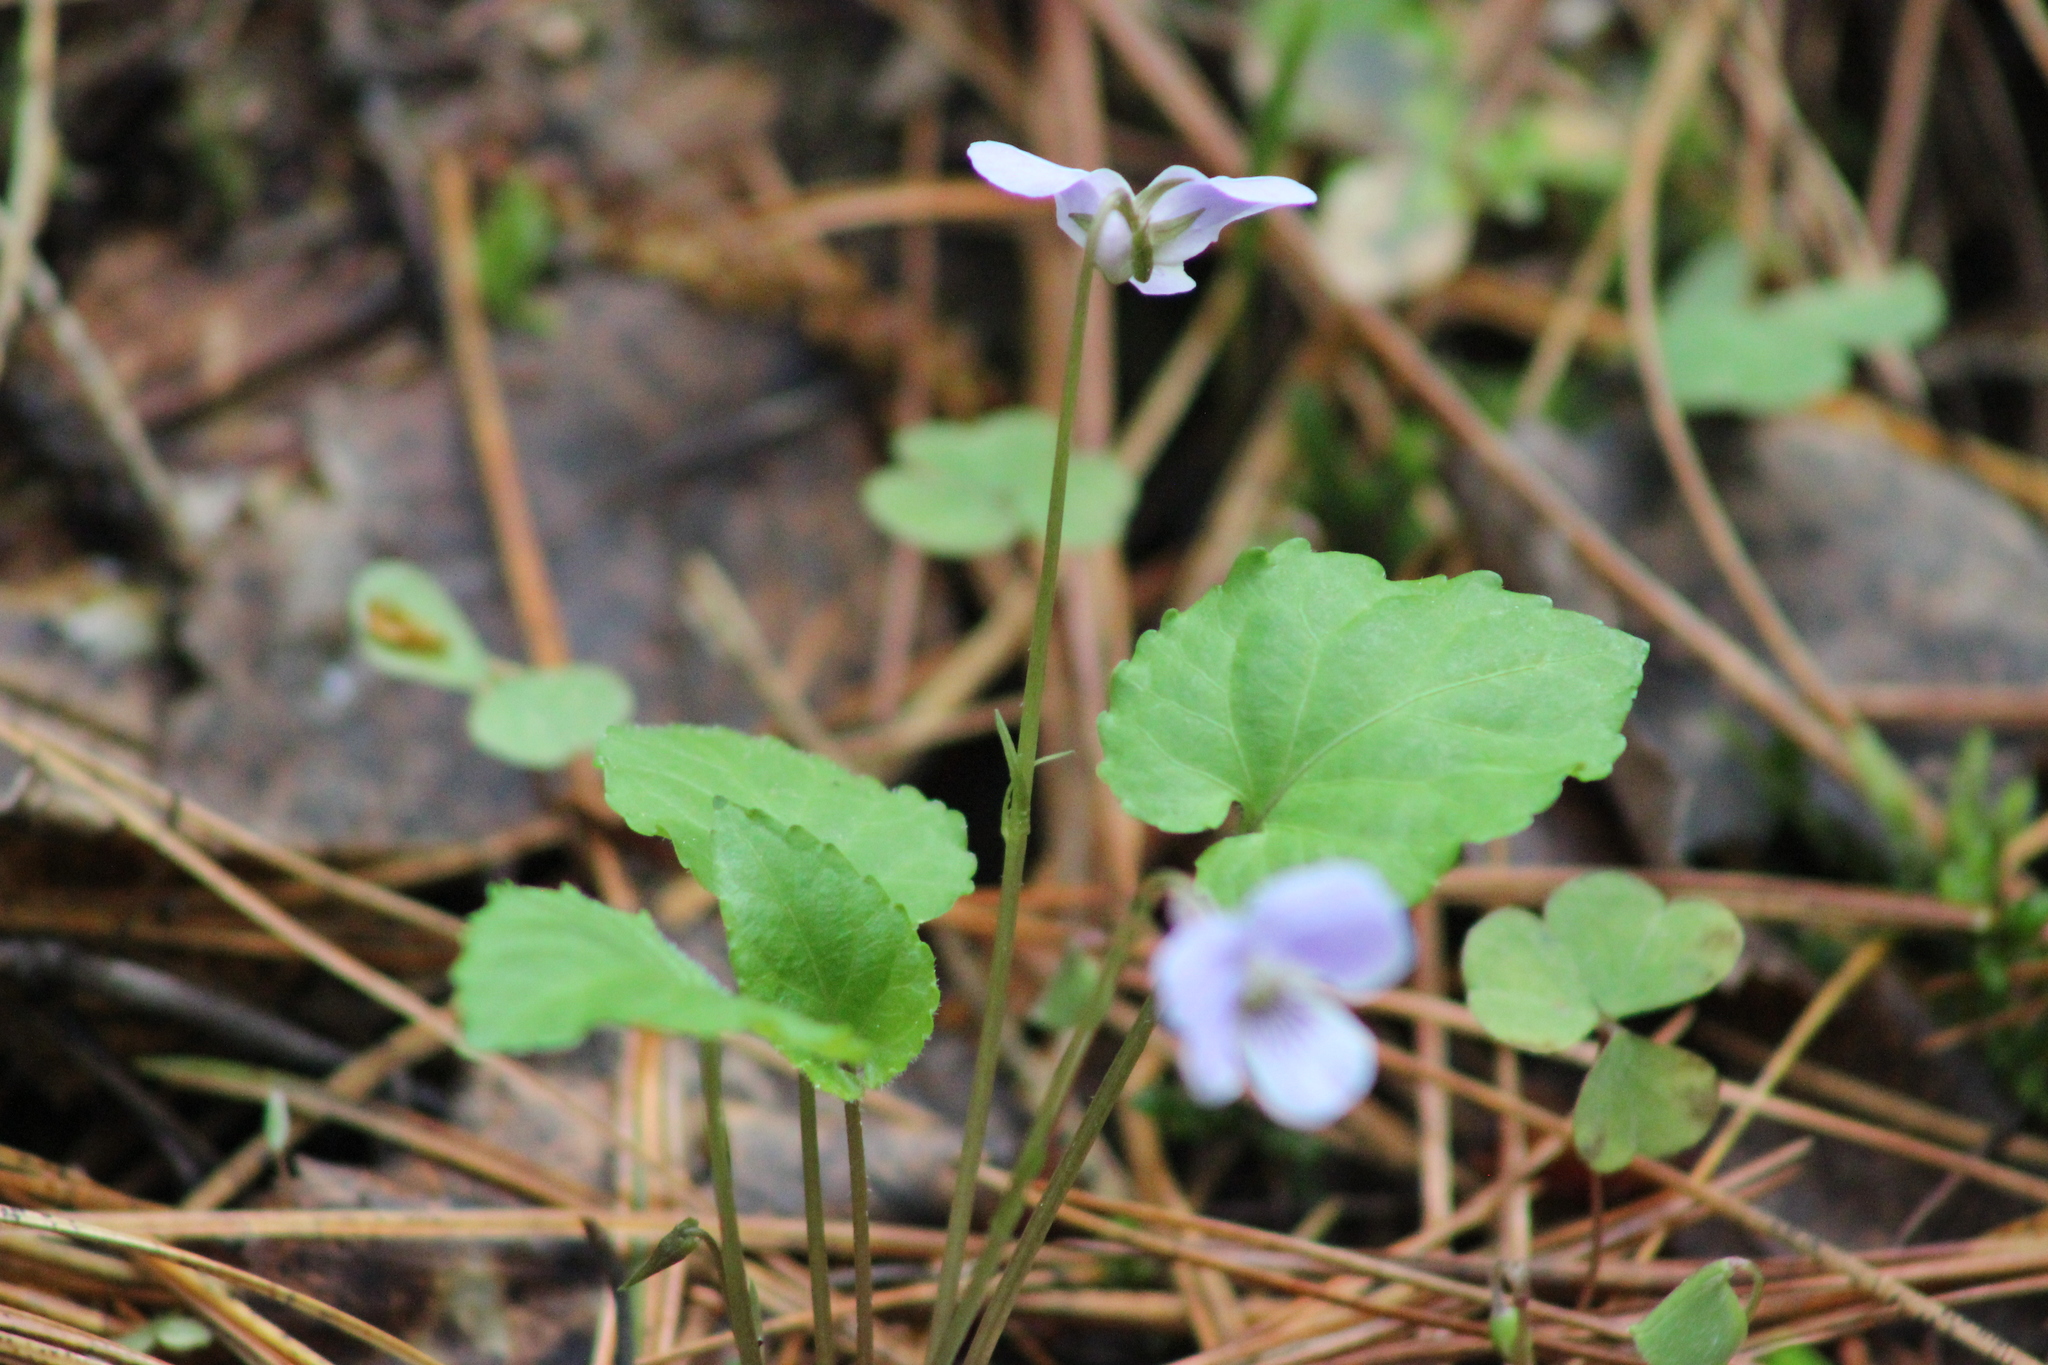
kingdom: Plantae
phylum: Tracheophyta
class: Magnoliopsida
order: Malpighiales
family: Violaceae
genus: Viola
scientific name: Viola selkirkii
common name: Selkirk's violet
